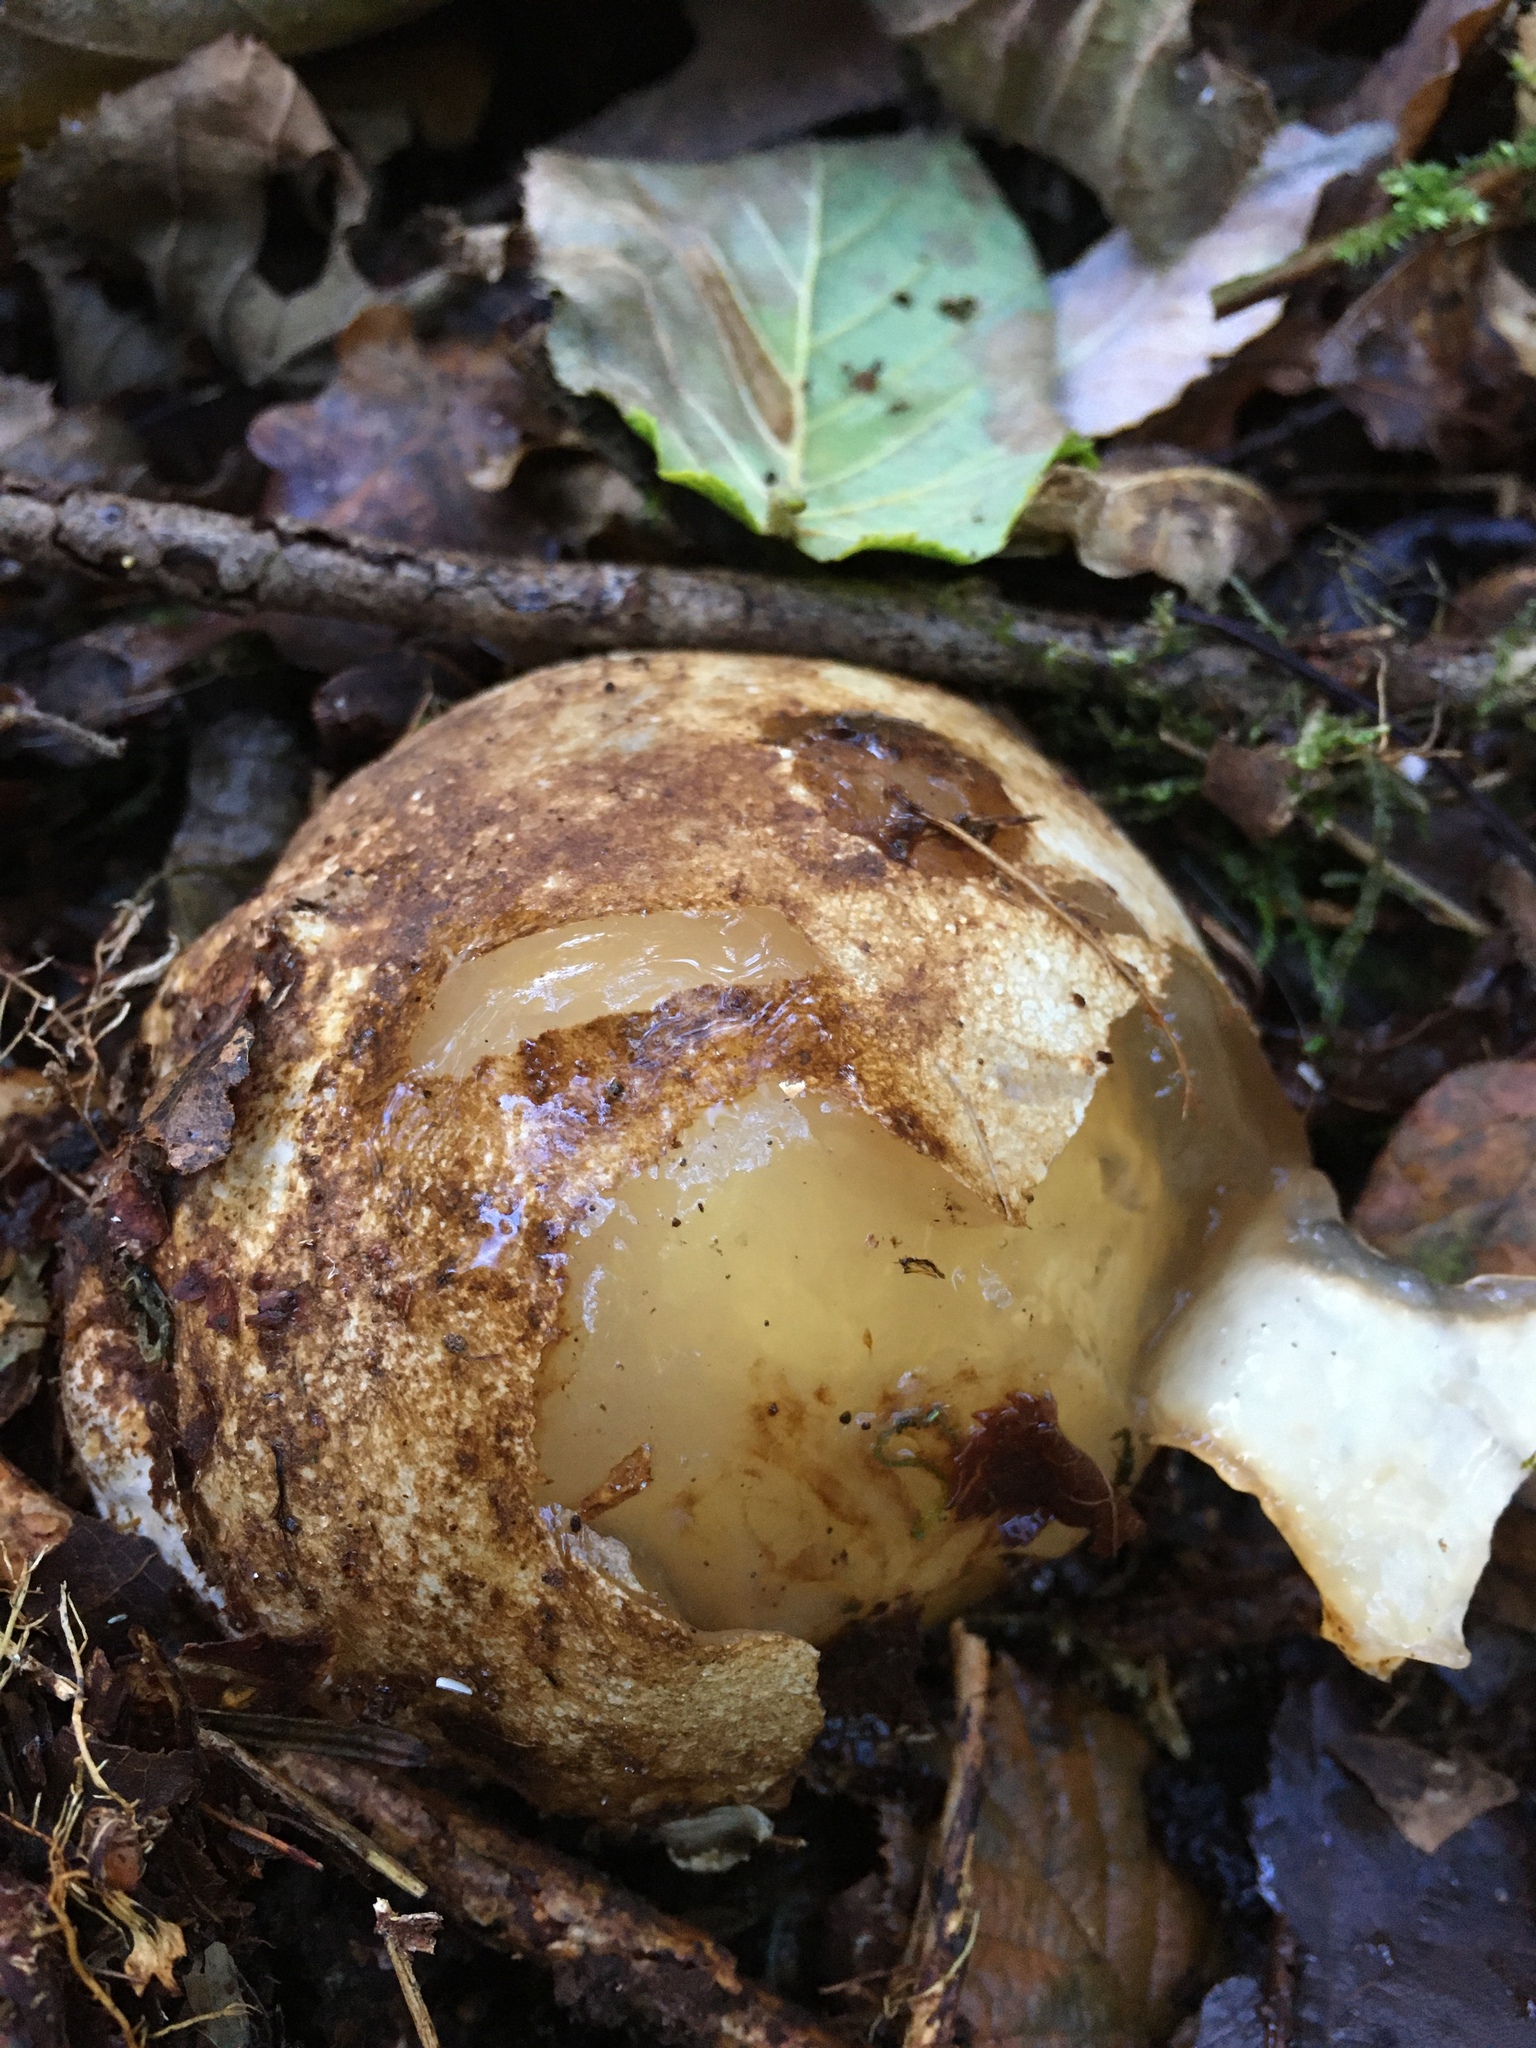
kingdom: Fungi
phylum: Basidiomycota
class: Agaricomycetes
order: Phallales
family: Phallaceae
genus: Phallus
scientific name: Phallus impudicus
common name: Common stinkhorn
